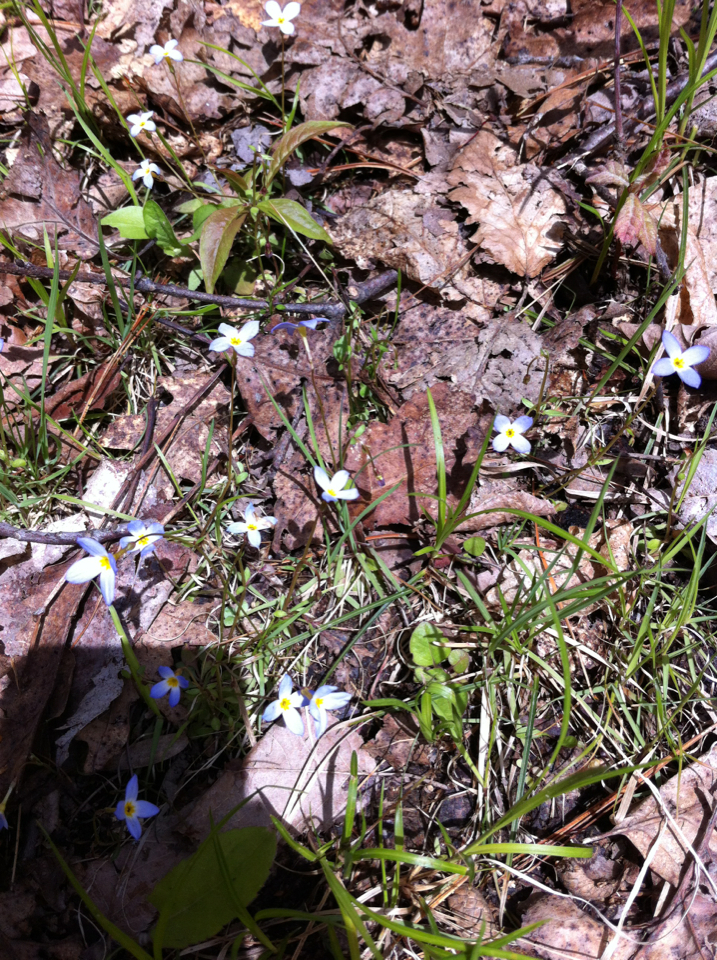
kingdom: Plantae
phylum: Tracheophyta
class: Magnoliopsida
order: Gentianales
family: Rubiaceae
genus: Houstonia
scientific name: Houstonia caerulea
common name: Bluets
